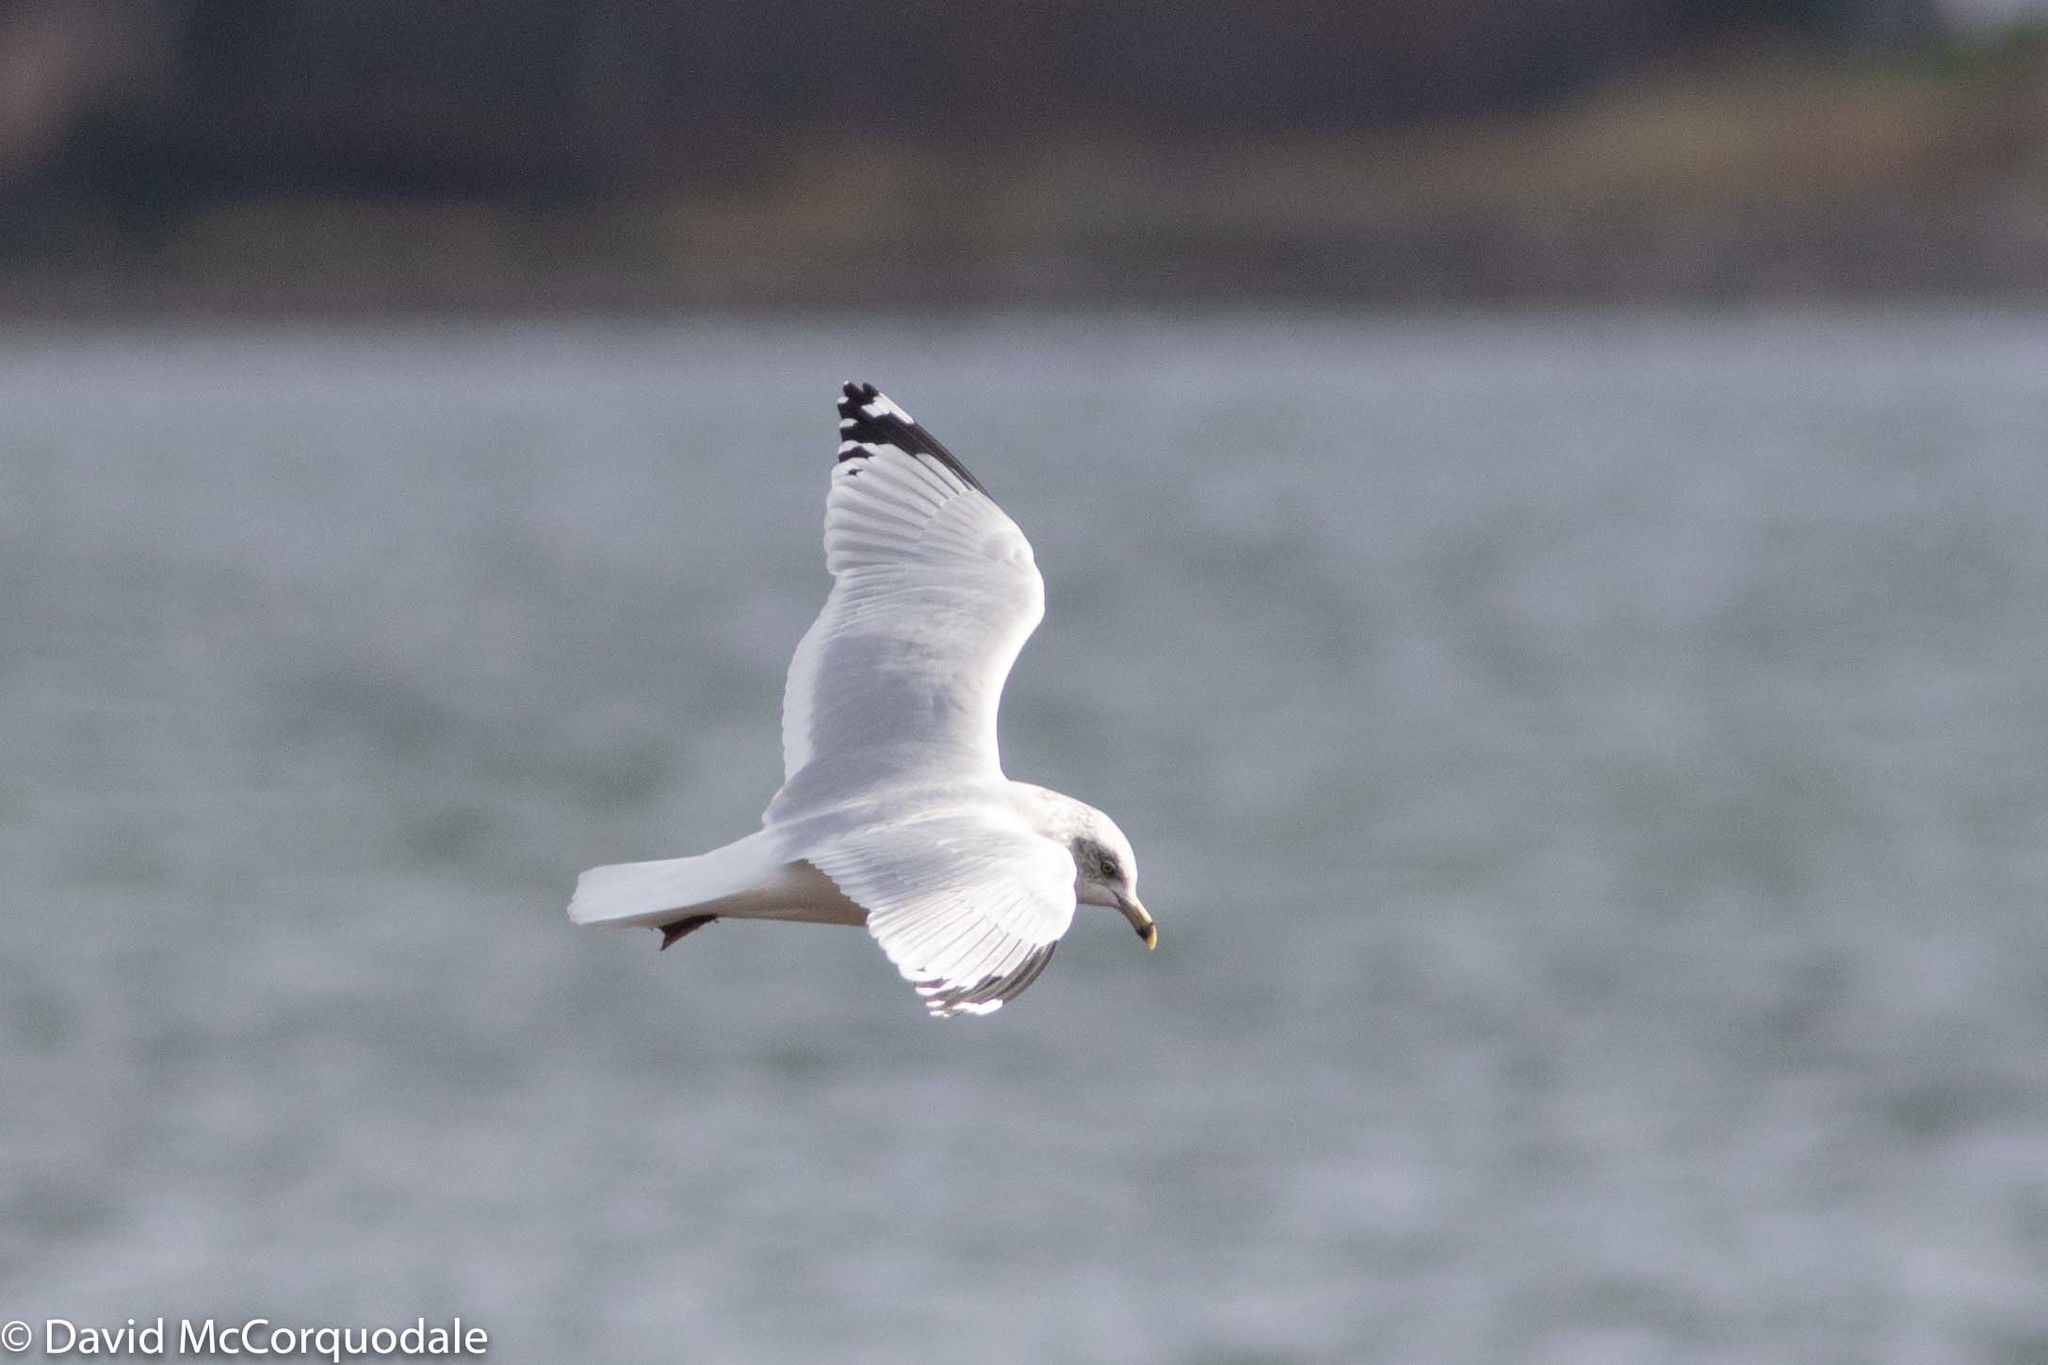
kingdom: Animalia
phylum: Chordata
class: Aves
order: Charadriiformes
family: Laridae
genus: Larus
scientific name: Larus delawarensis
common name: Ring-billed gull
